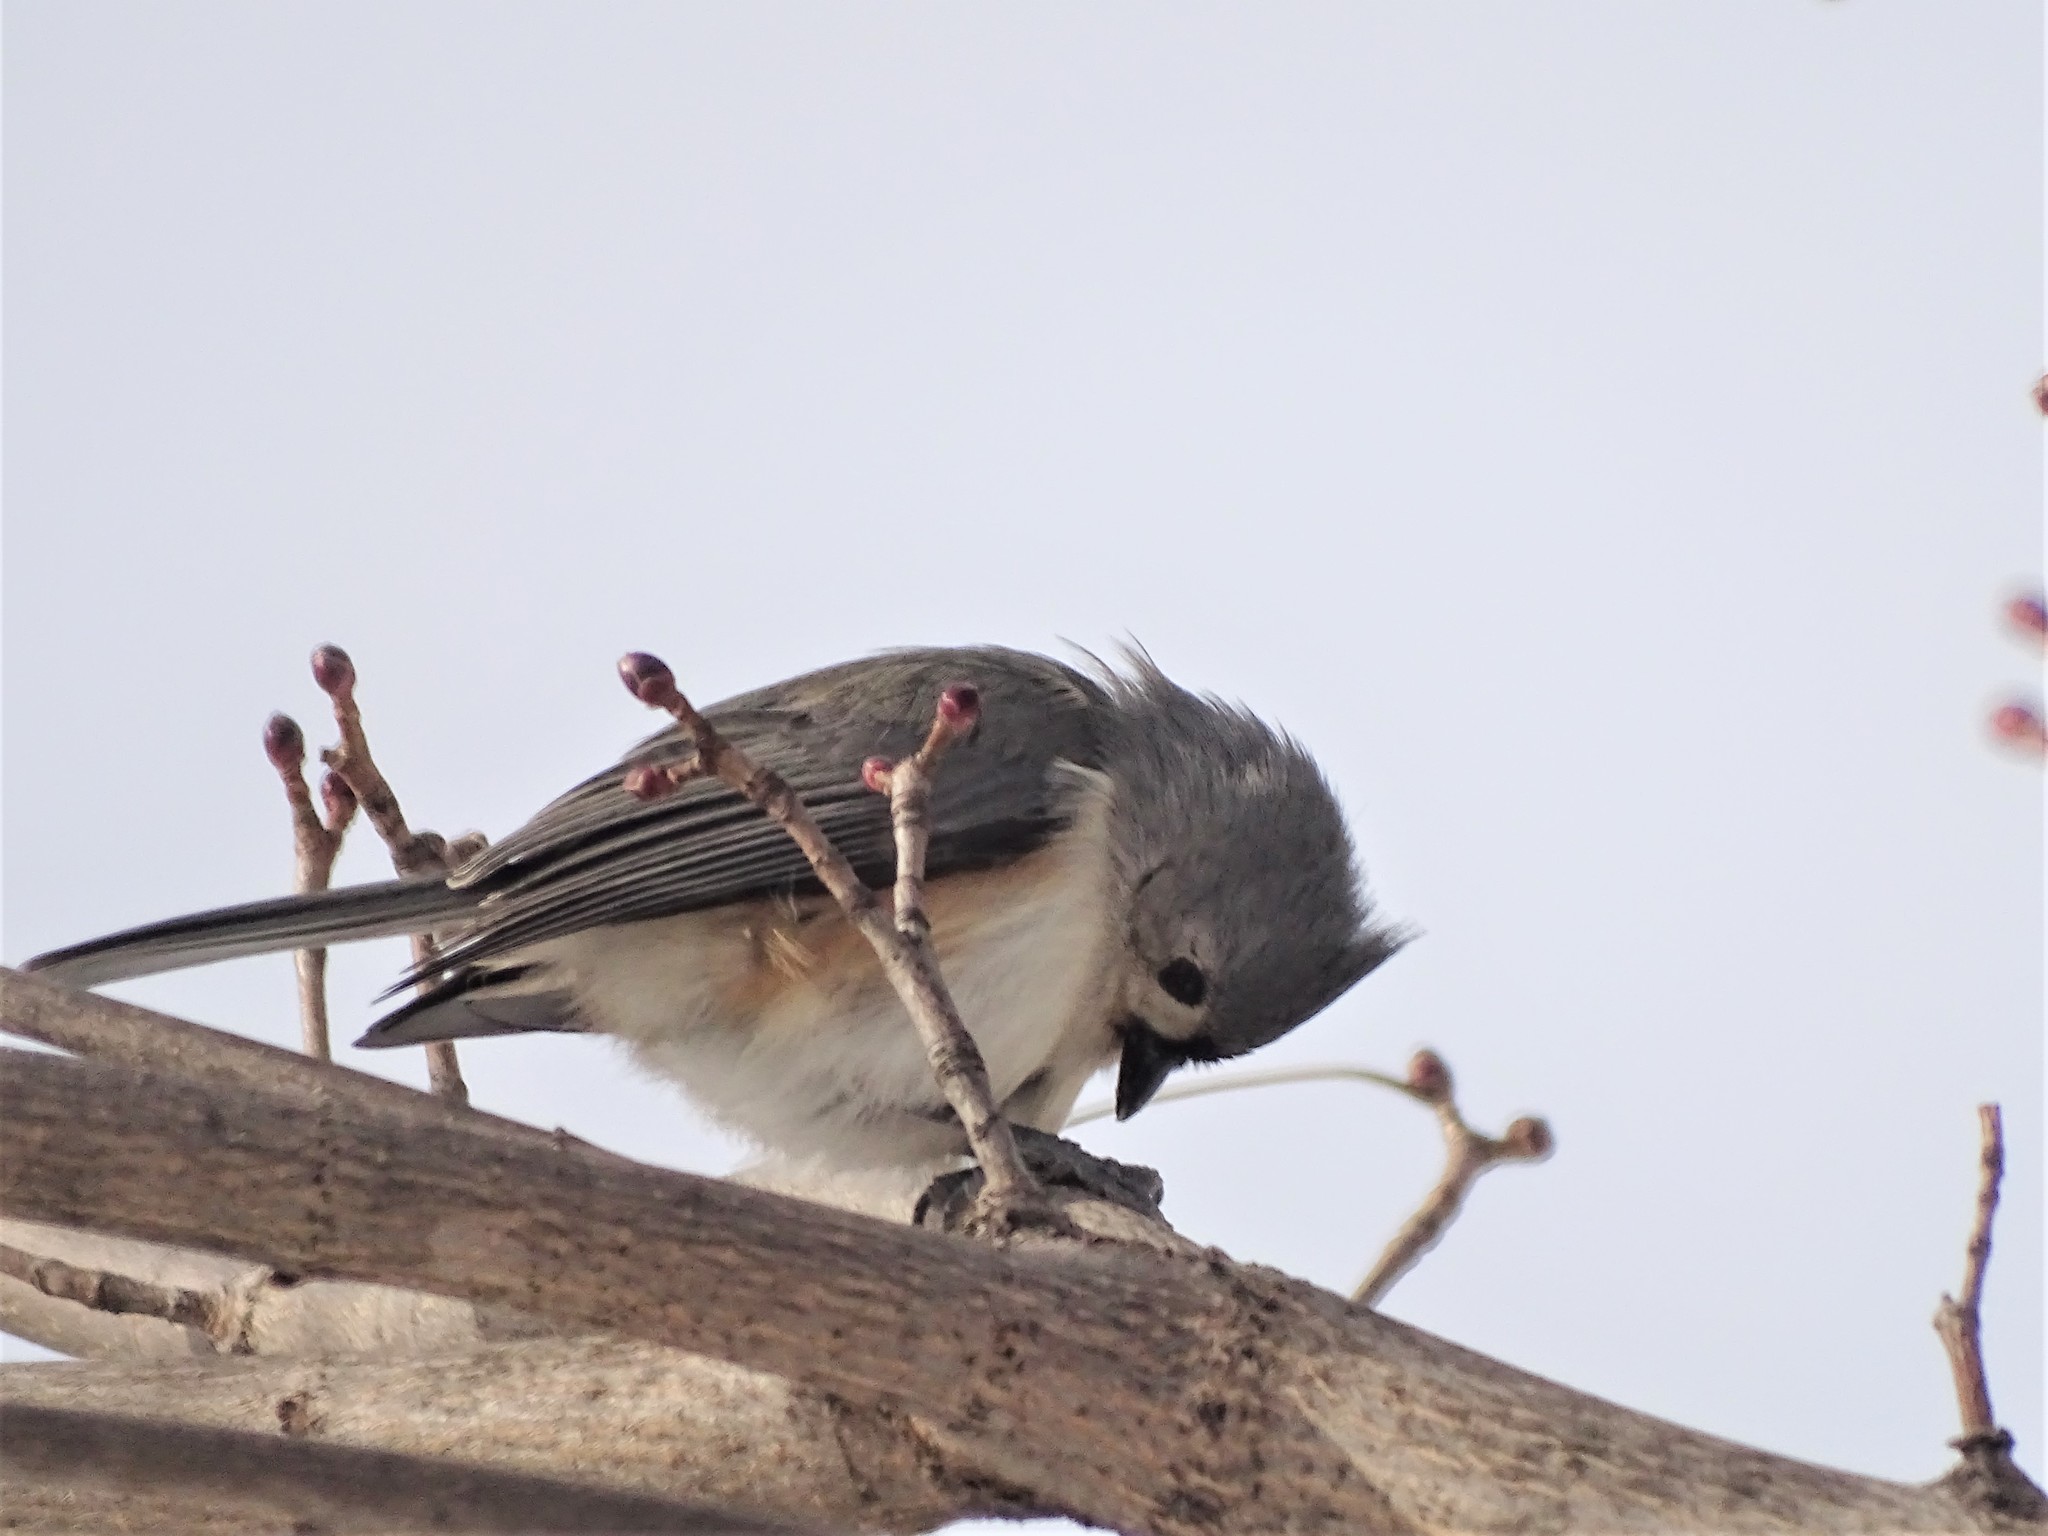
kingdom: Animalia
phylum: Chordata
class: Aves
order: Passeriformes
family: Paridae
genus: Baeolophus
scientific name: Baeolophus bicolor
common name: Tufted titmouse
